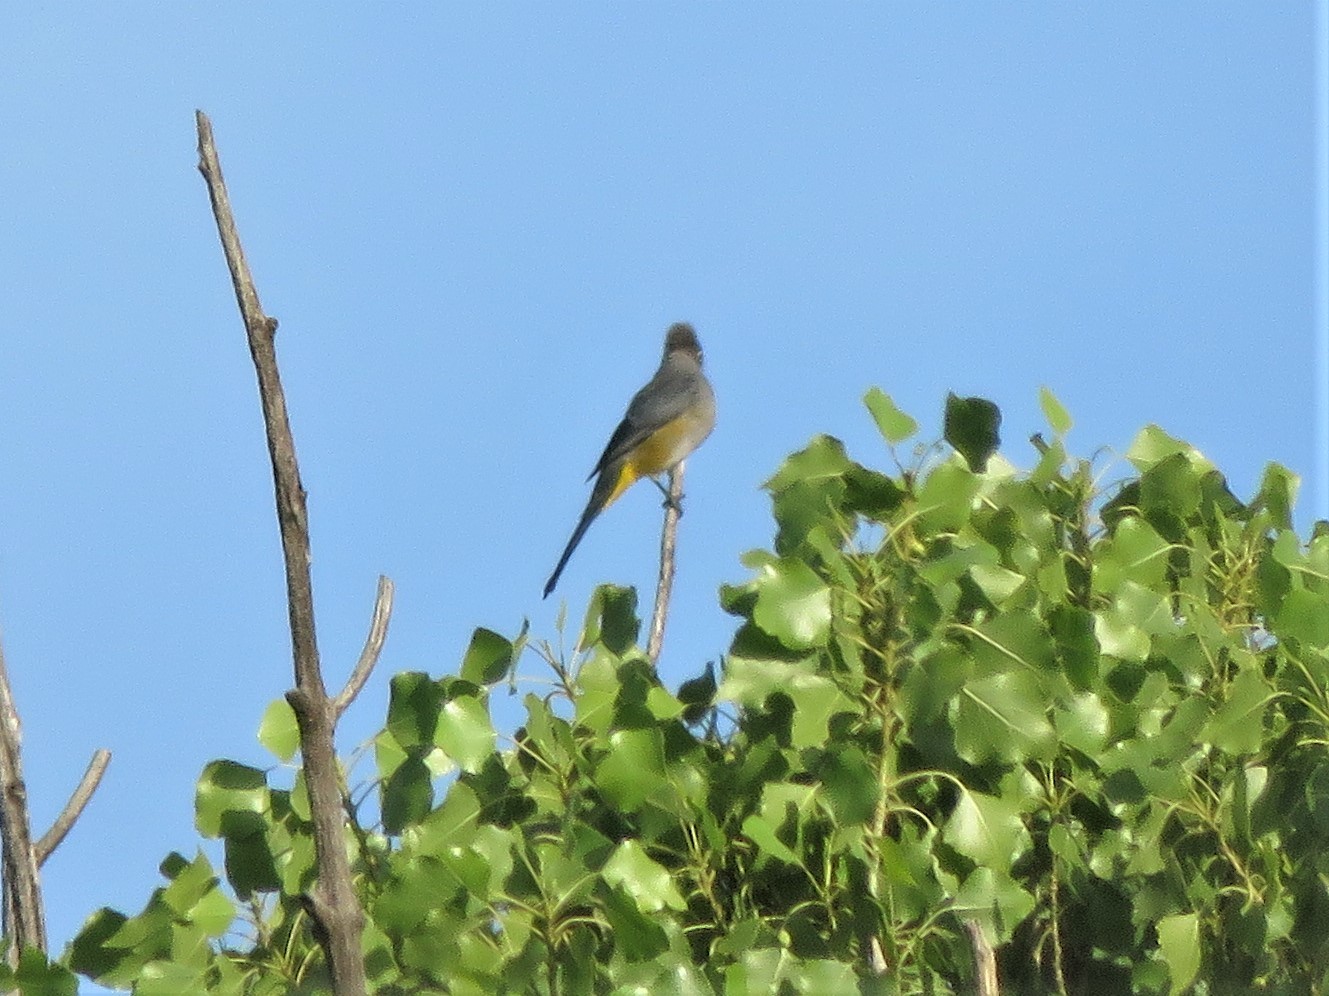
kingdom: Animalia
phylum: Chordata
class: Aves
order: Passeriformes
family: Ptilogonatidae
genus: Ptilogonys
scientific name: Ptilogonys cinereus
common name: Gray silky-flycatcher
